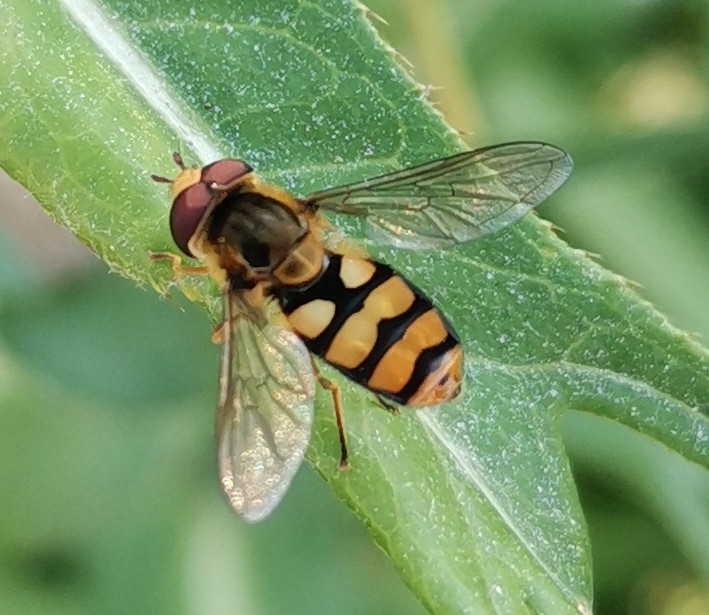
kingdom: Animalia
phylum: Arthropoda
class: Insecta
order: Diptera
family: Syrphidae
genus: Eupeodes
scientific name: Eupeodes latifasciatus
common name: Variable aphideater
